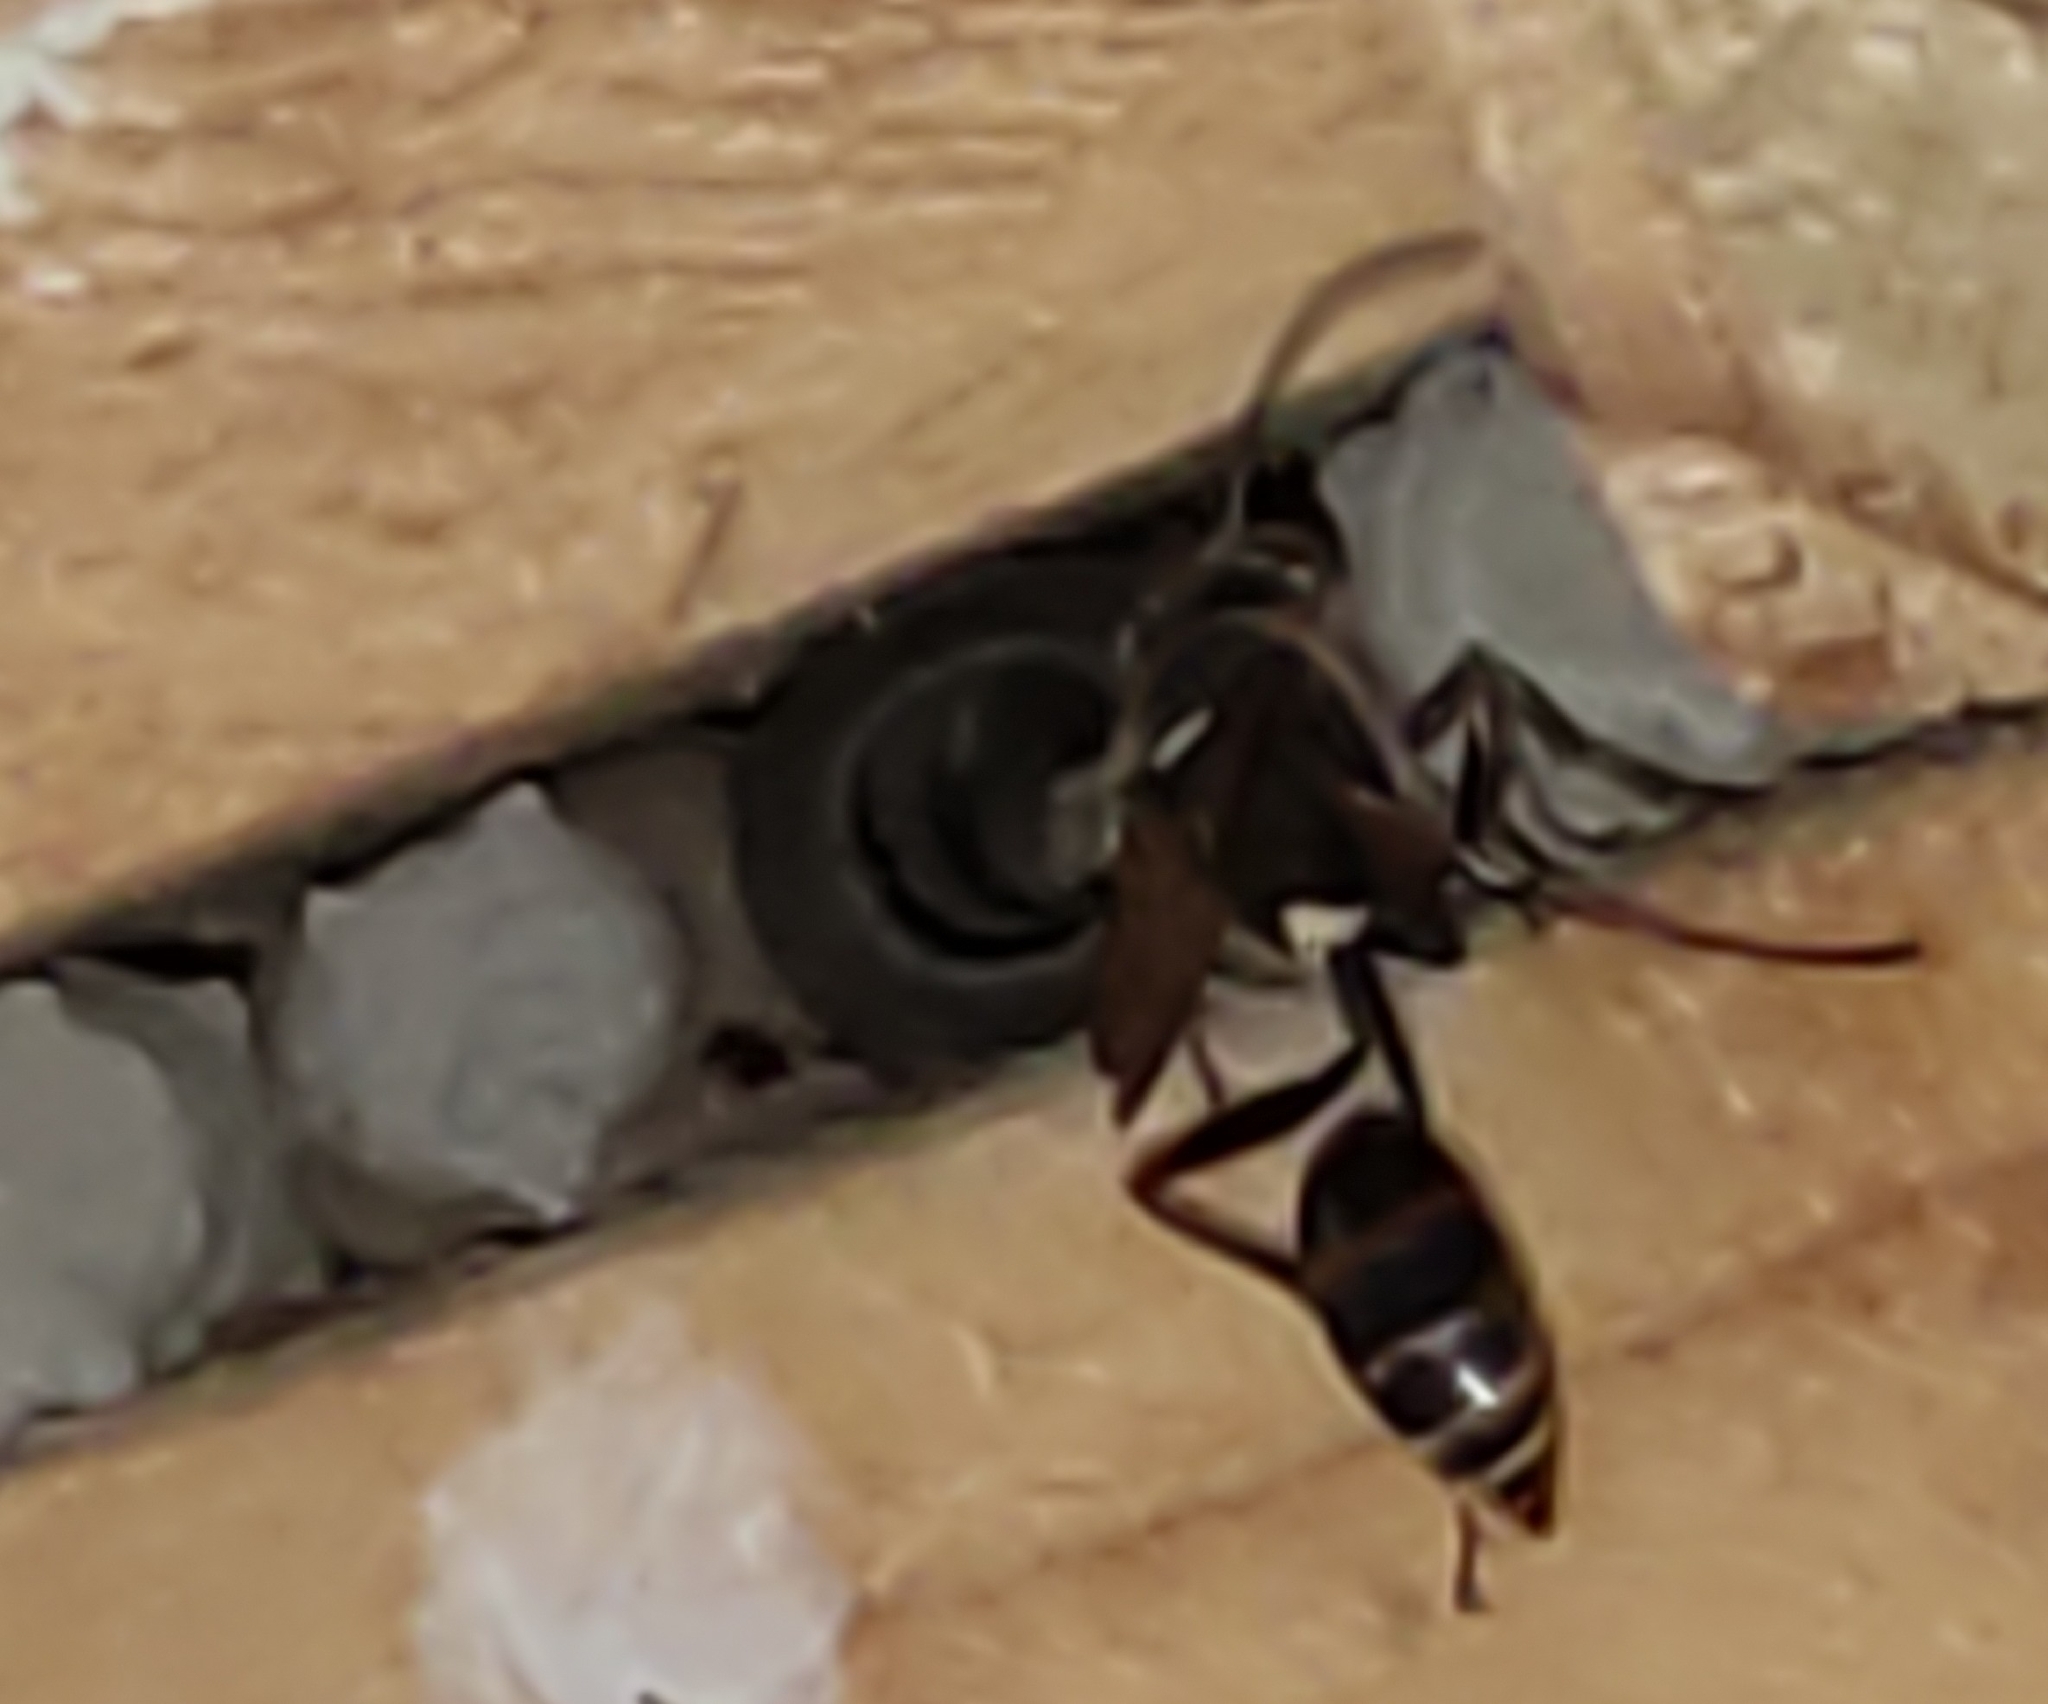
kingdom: Animalia
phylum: Arthropoda
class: Insecta
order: Hymenoptera
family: Sphecidae
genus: Sceliphron
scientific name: Sceliphron curvatum
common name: Pèlopèe
